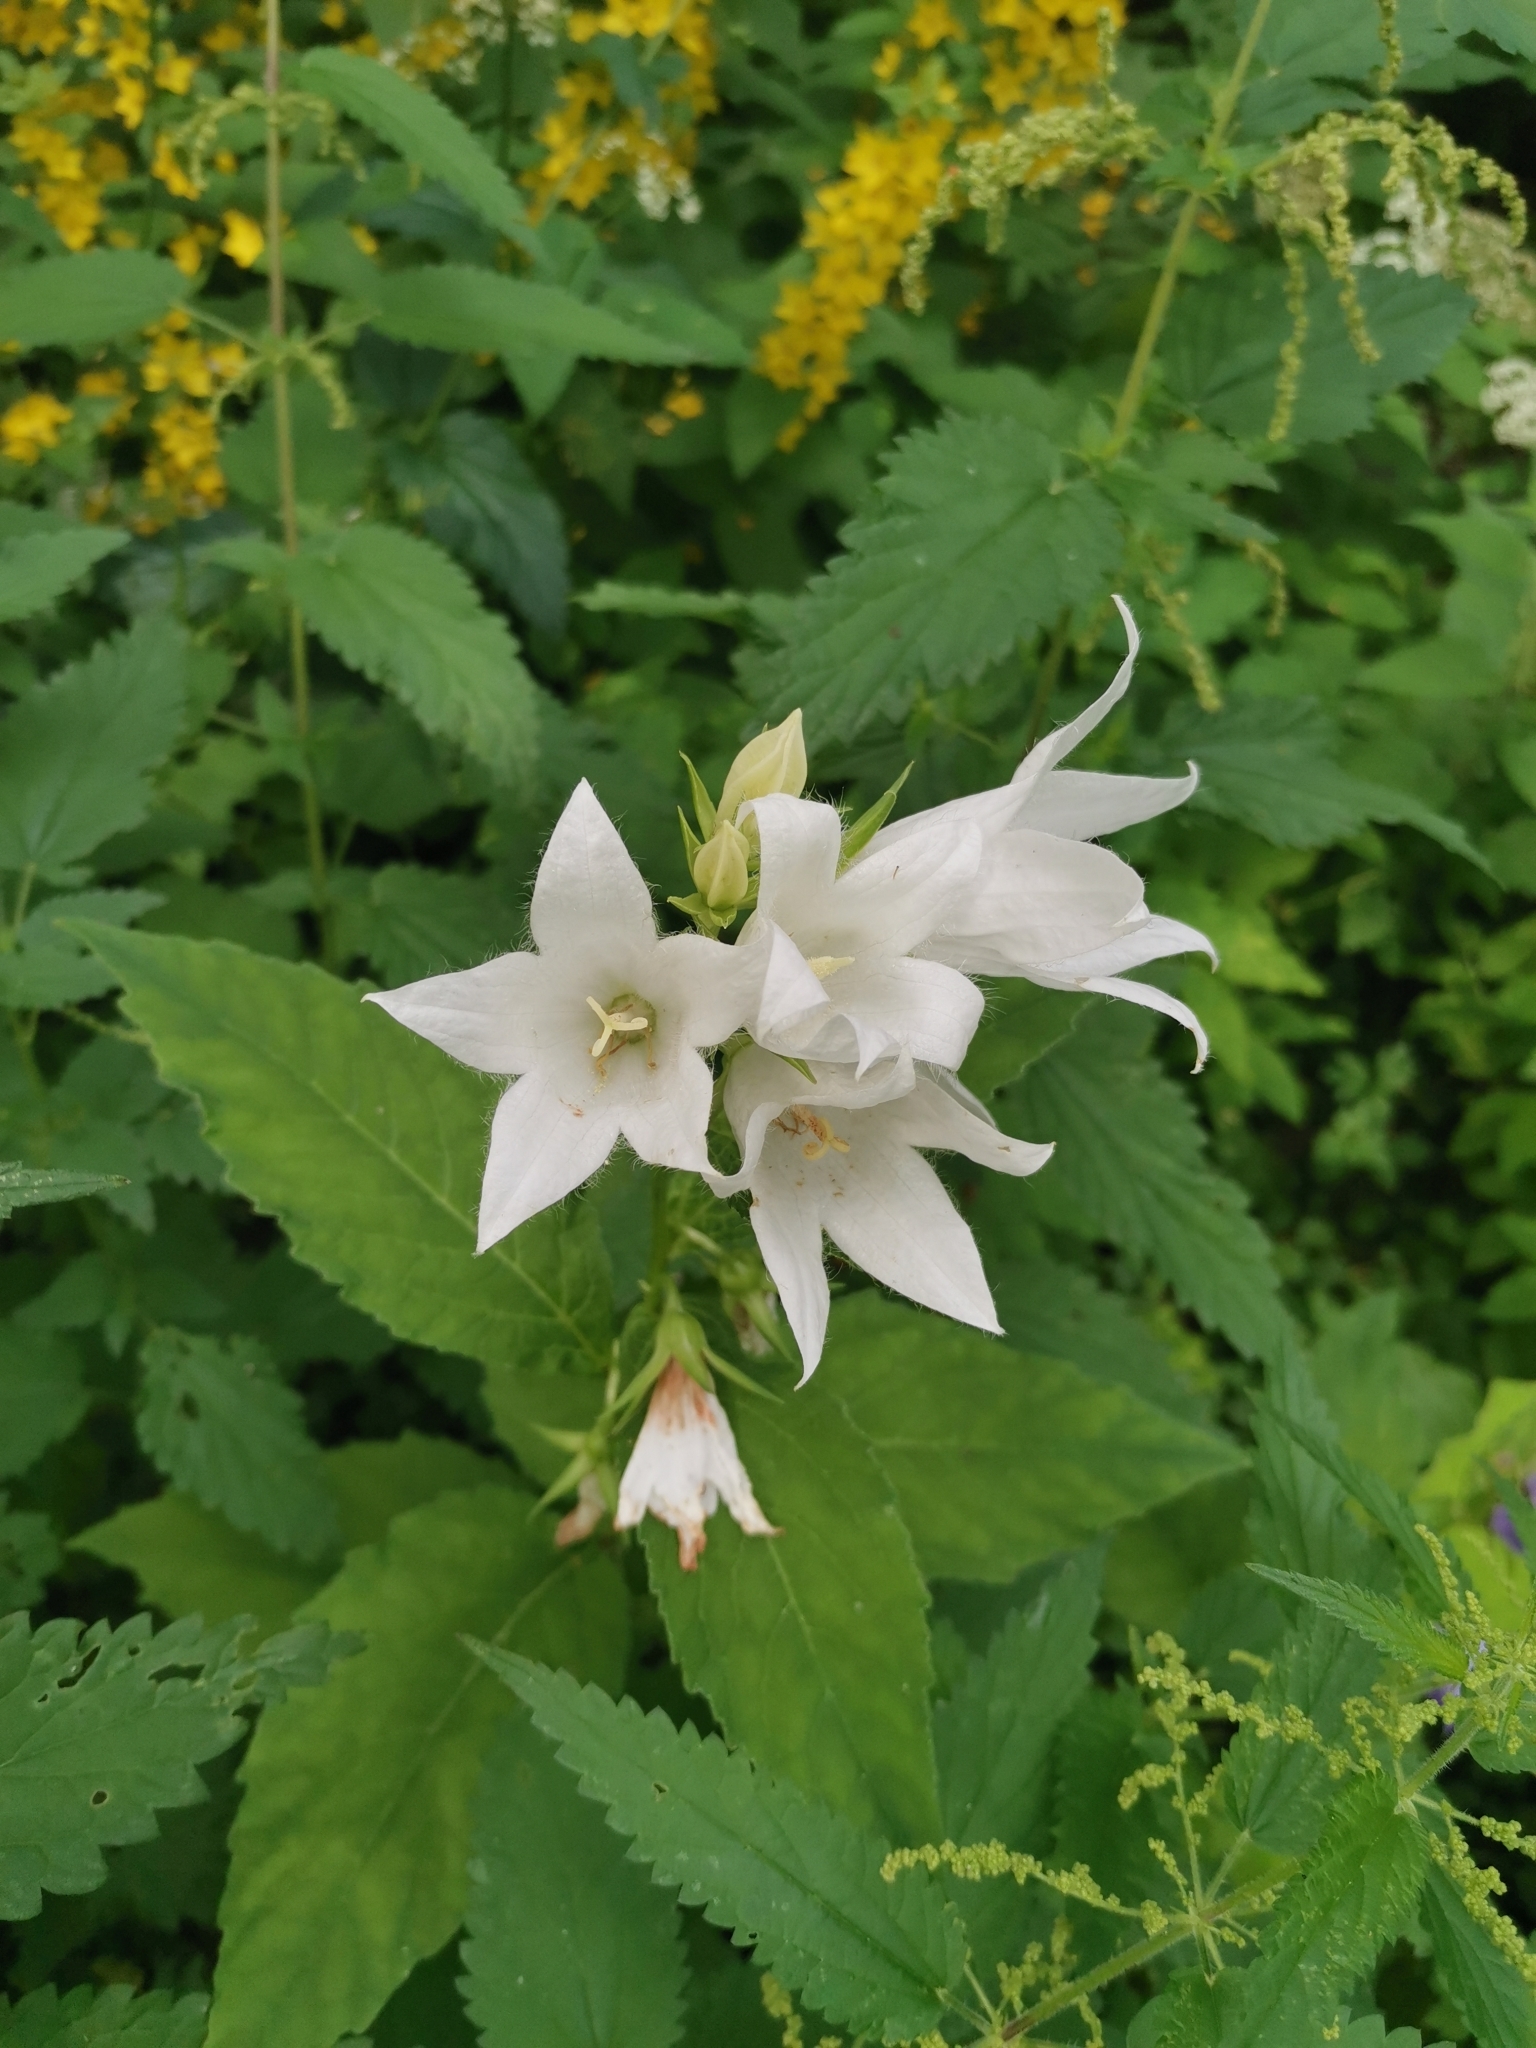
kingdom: Plantae
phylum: Tracheophyta
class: Magnoliopsida
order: Asterales
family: Campanulaceae
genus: Campanula
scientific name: Campanula latifolia
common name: Giant bellflower
